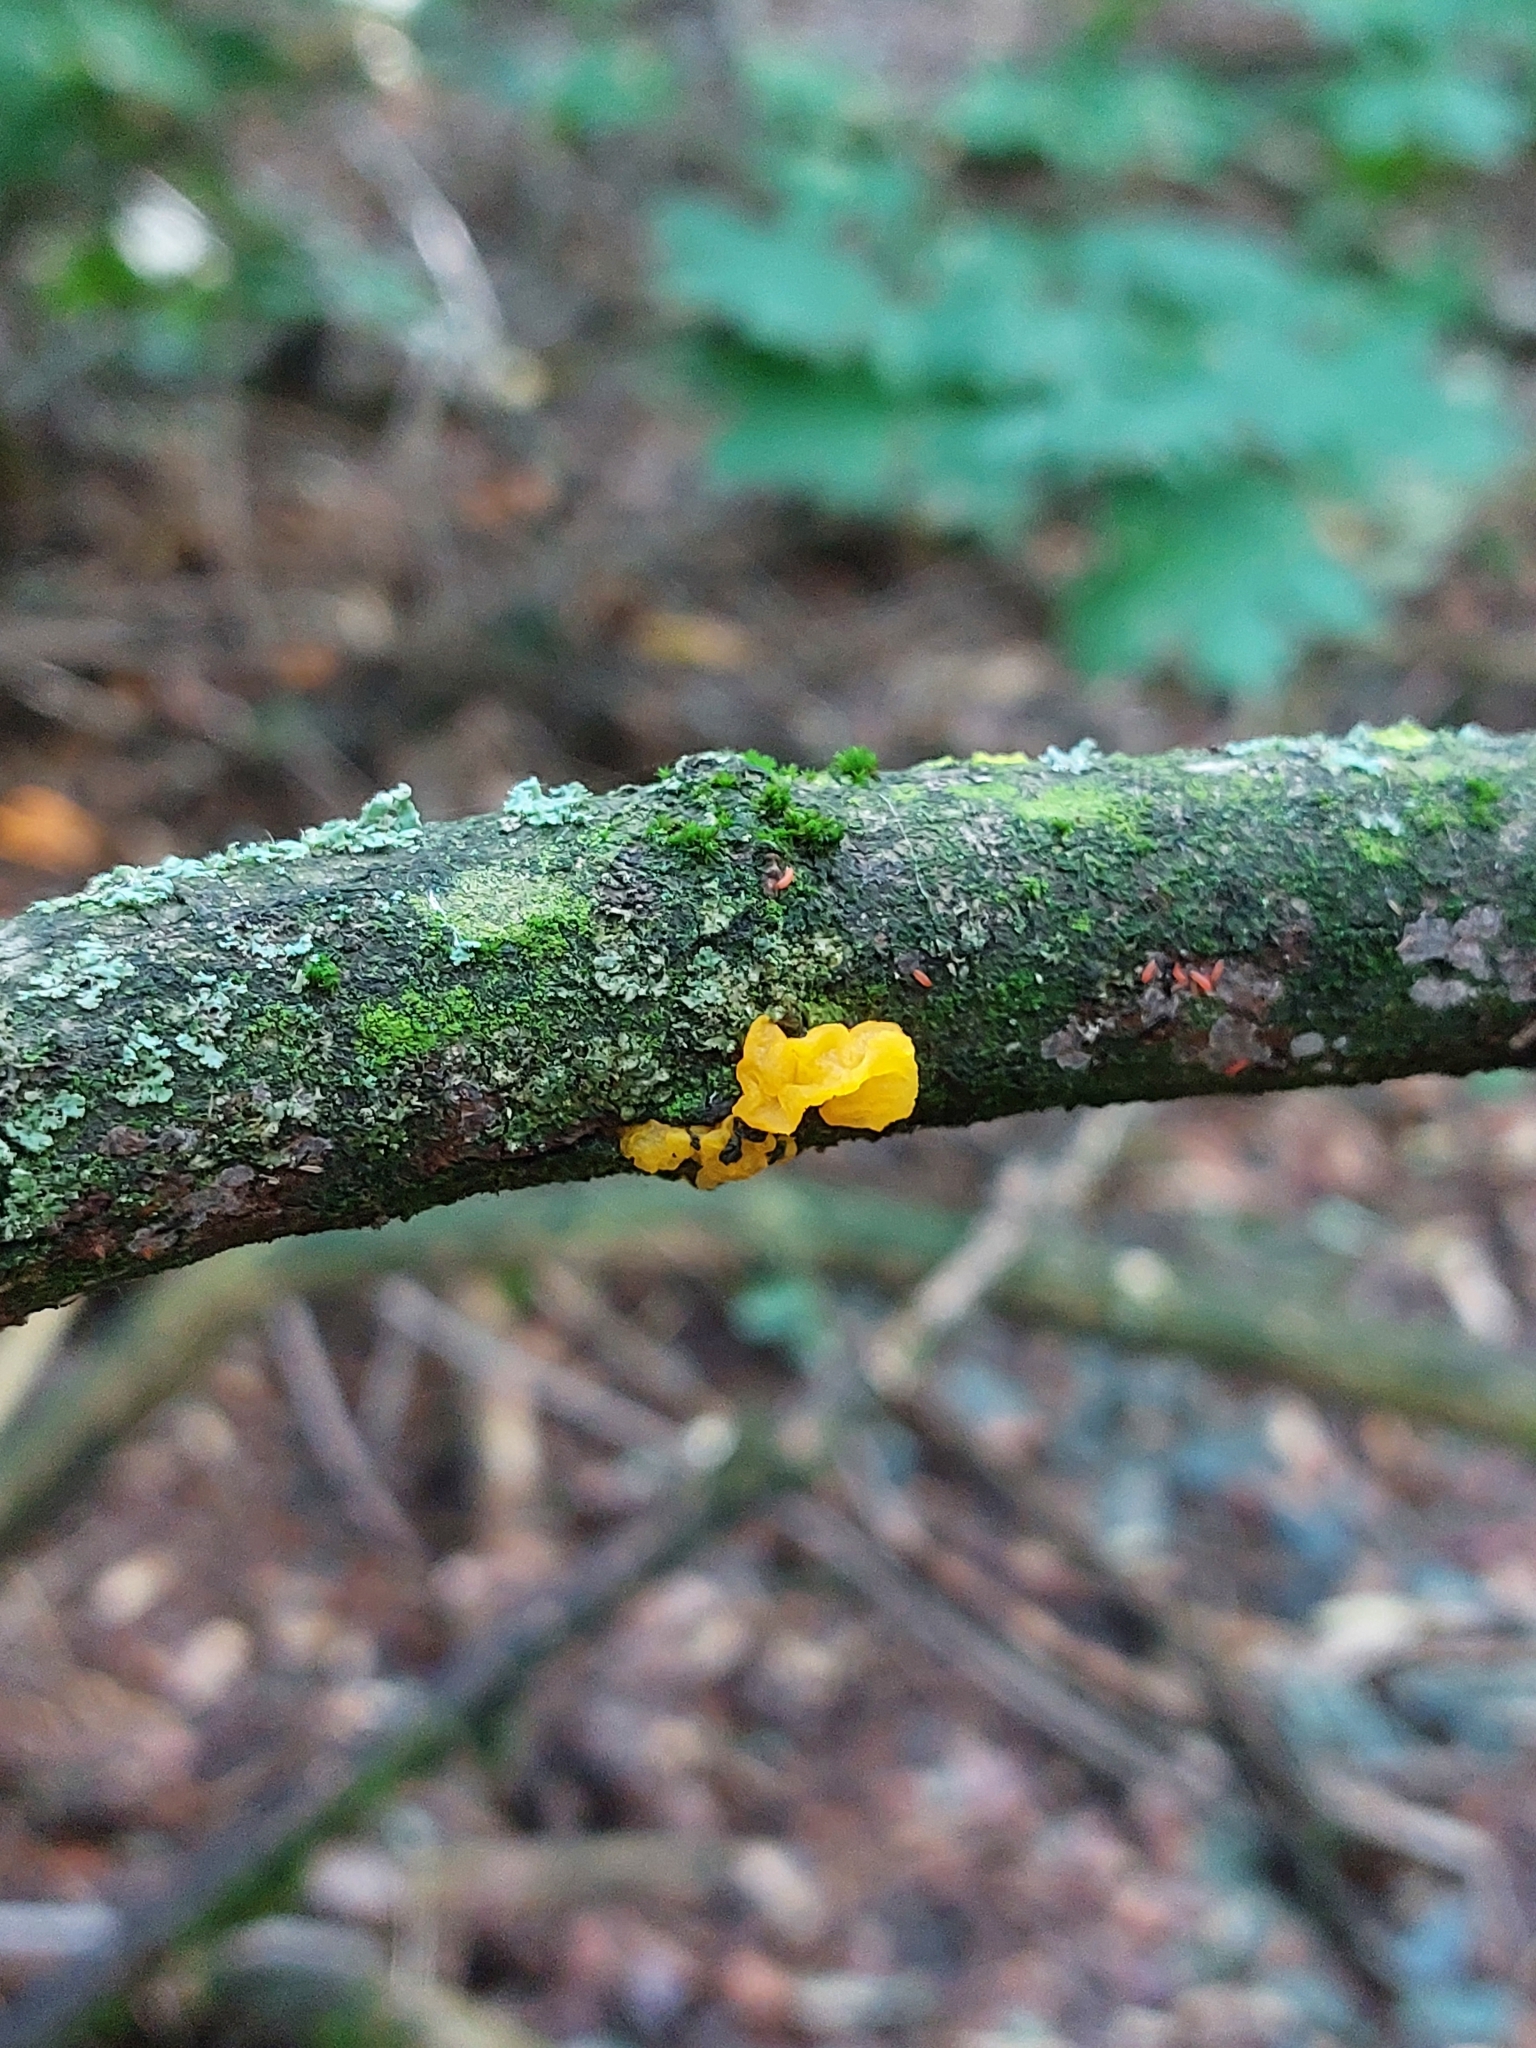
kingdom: Fungi
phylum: Basidiomycota
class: Tremellomycetes
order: Tremellales
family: Tremellaceae
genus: Tremella
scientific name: Tremella mesenterica
